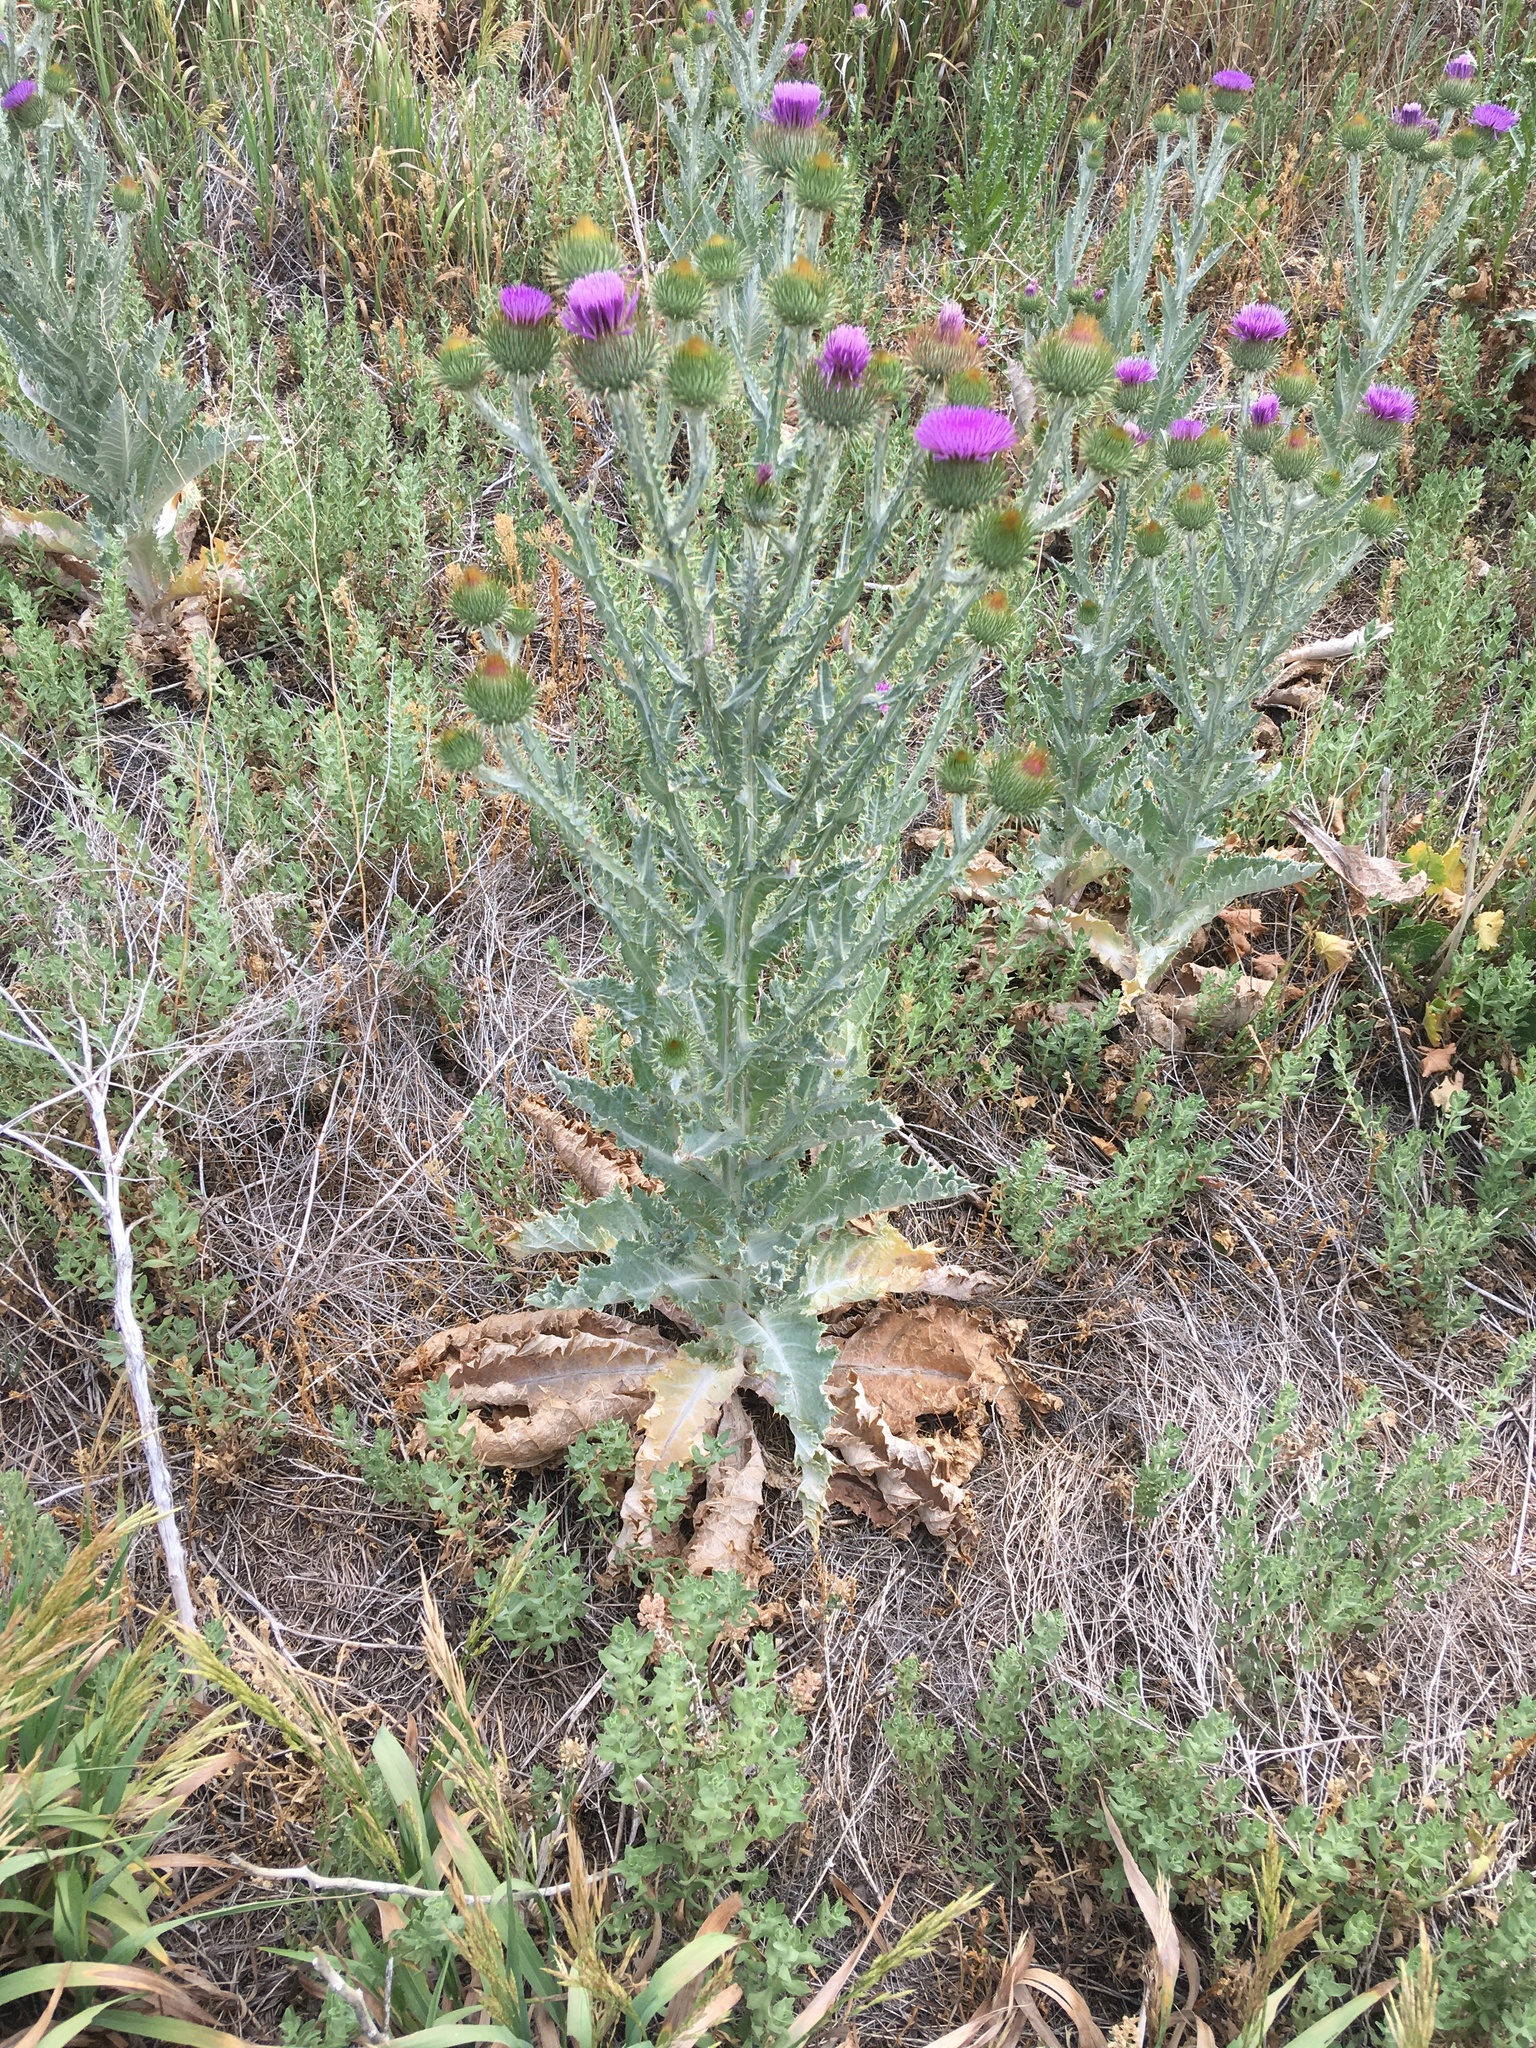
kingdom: Plantae
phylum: Tracheophyta
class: Magnoliopsida
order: Asterales
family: Asteraceae
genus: Onopordum
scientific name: Onopordum acanthium
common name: Scotch thistle
